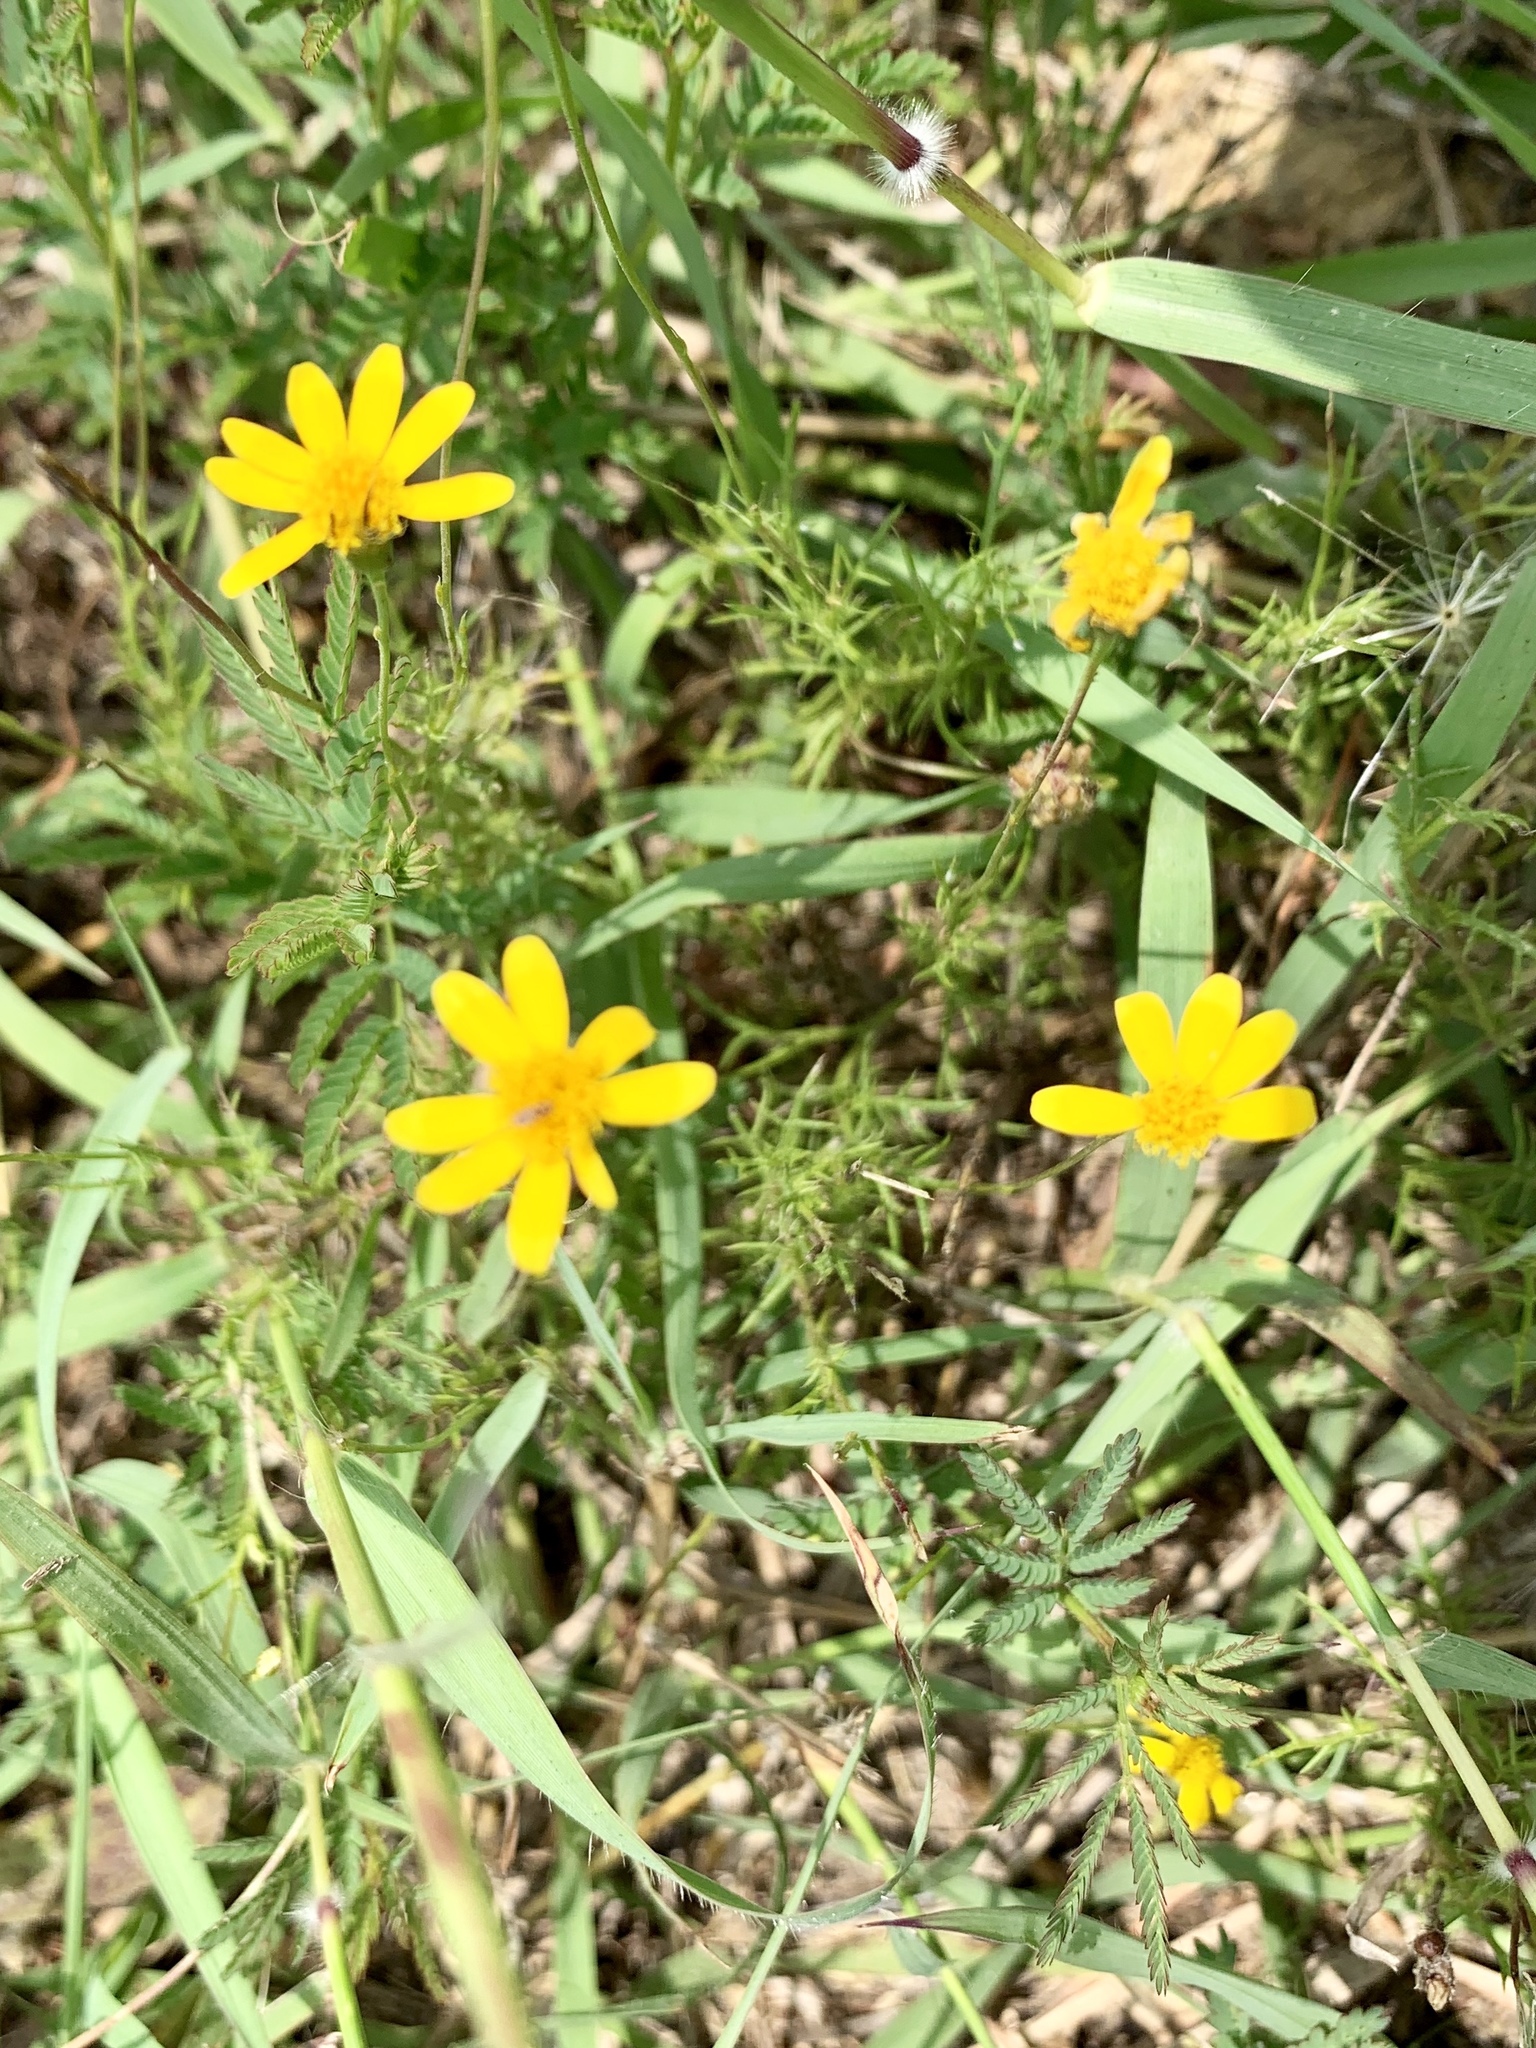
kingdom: Plantae
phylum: Tracheophyta
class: Magnoliopsida
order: Asterales
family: Asteraceae
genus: Thymophylla
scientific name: Thymophylla tenuiloba
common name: Dahlberg's daisy
